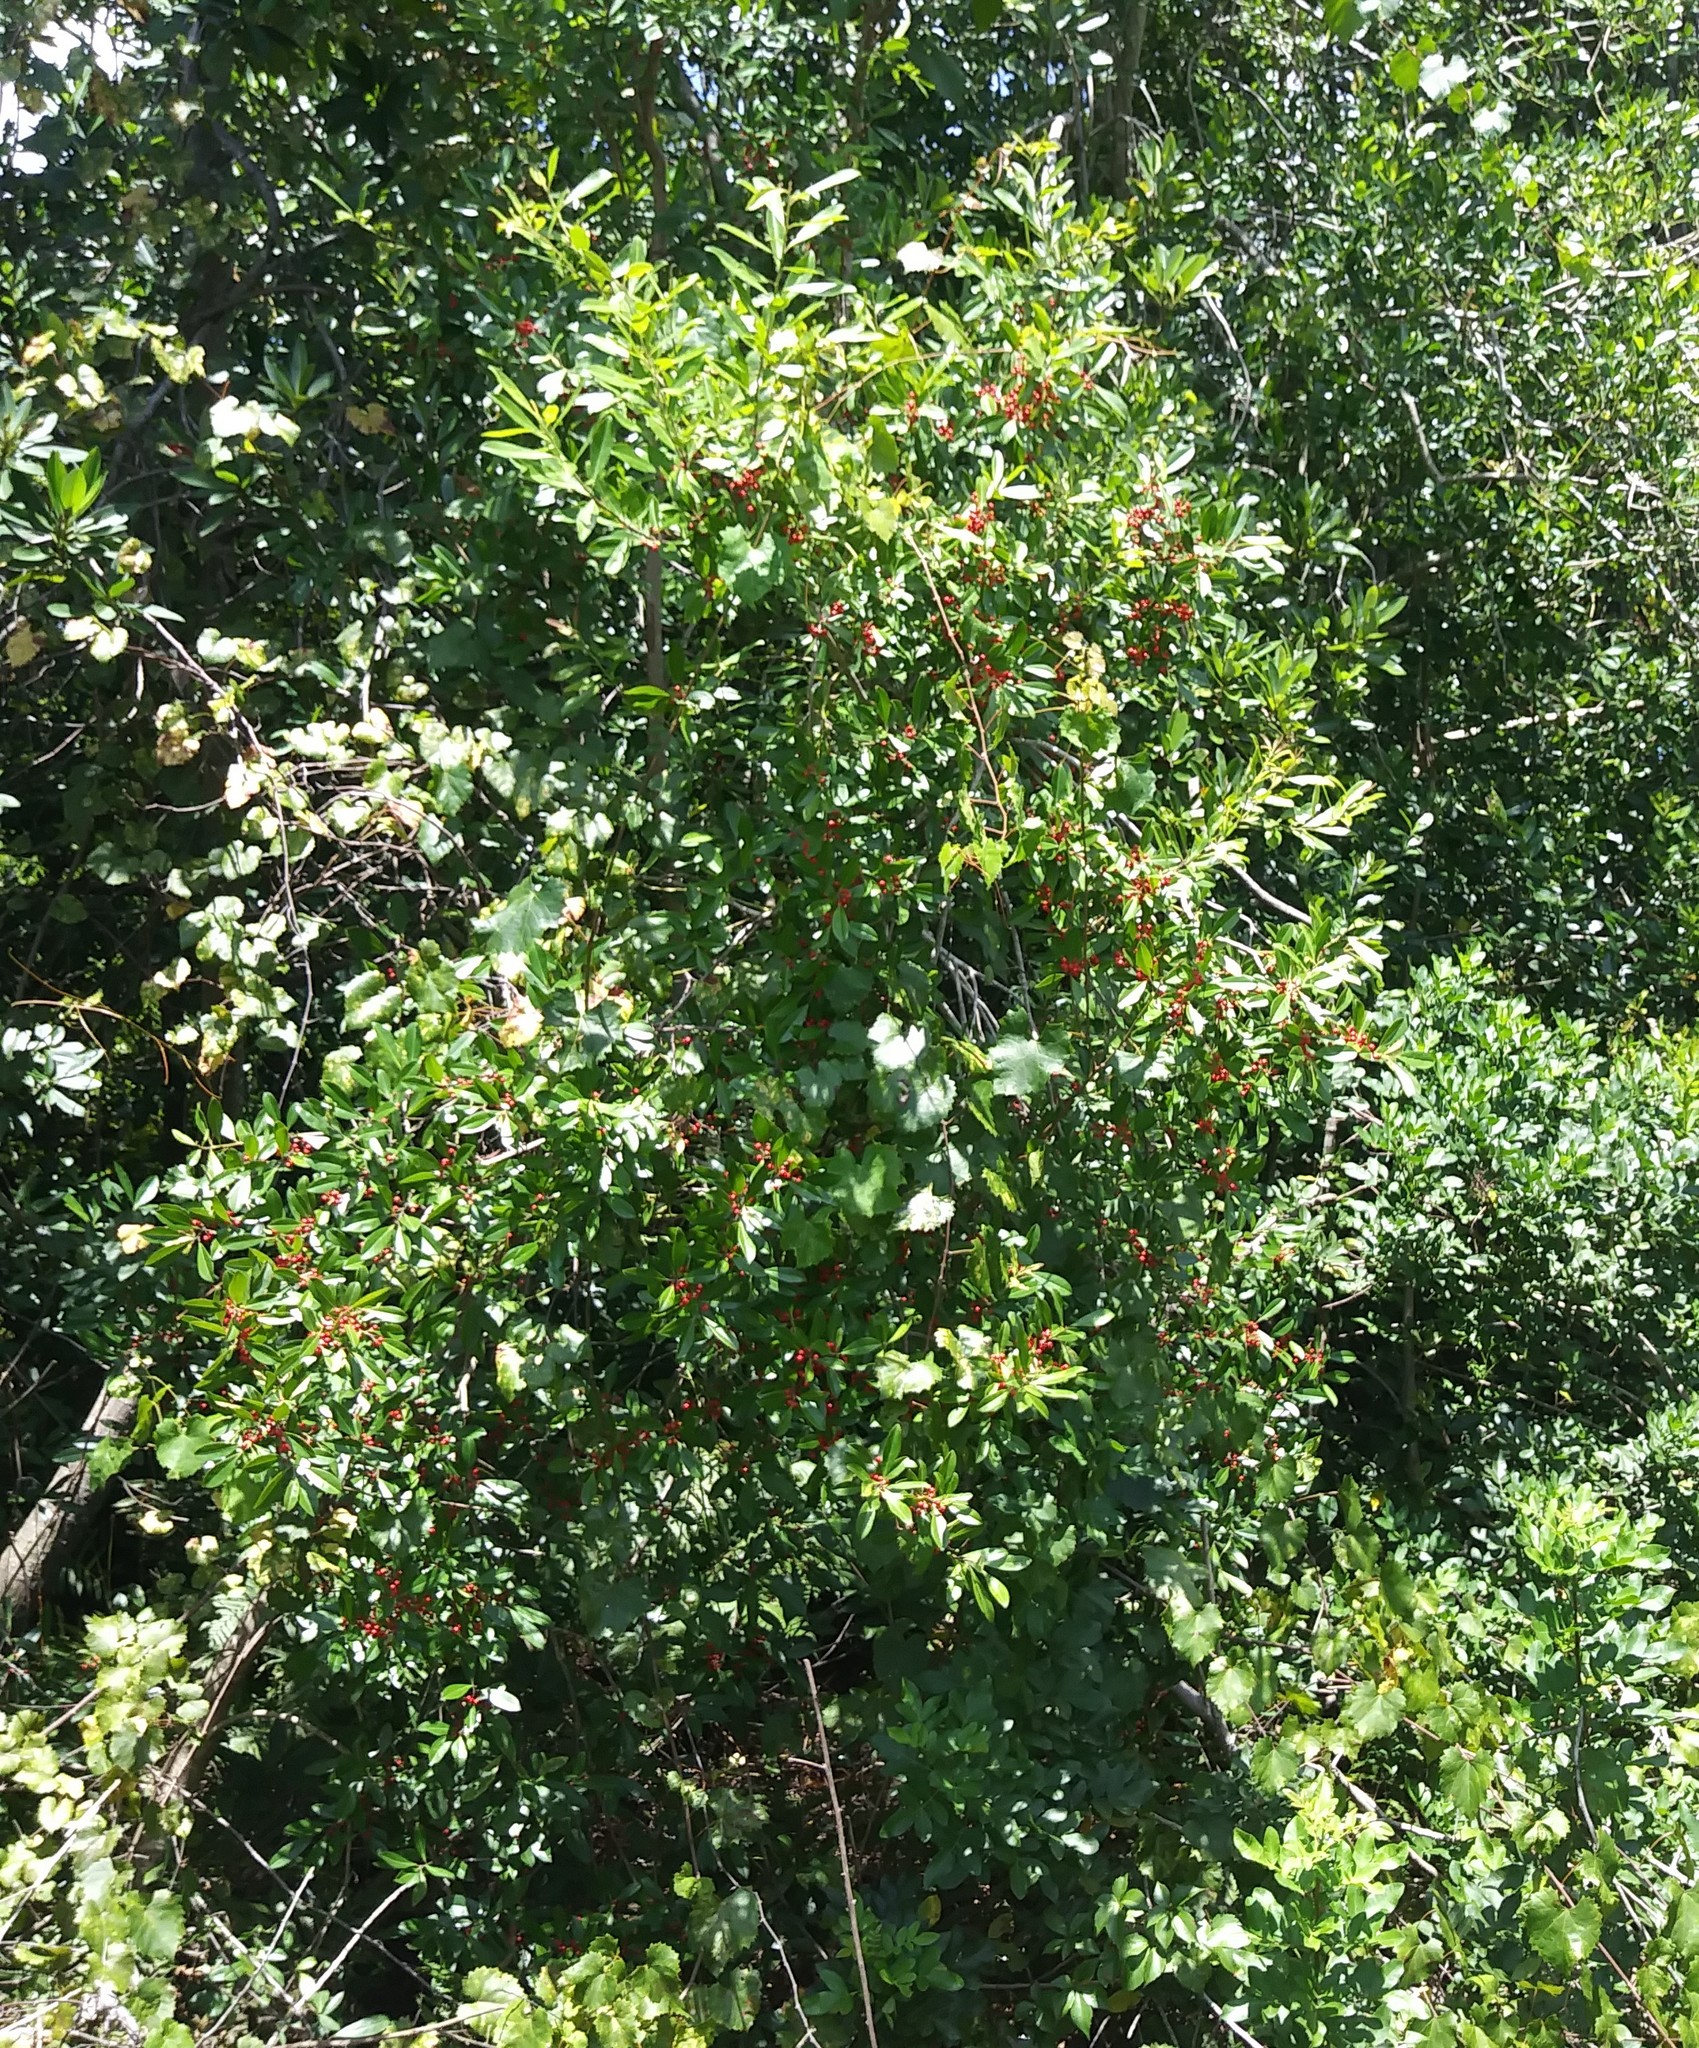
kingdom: Plantae
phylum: Tracheophyta
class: Magnoliopsida
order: Aquifoliales
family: Aquifoliaceae
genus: Ilex
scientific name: Ilex cassine
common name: Dahoon
